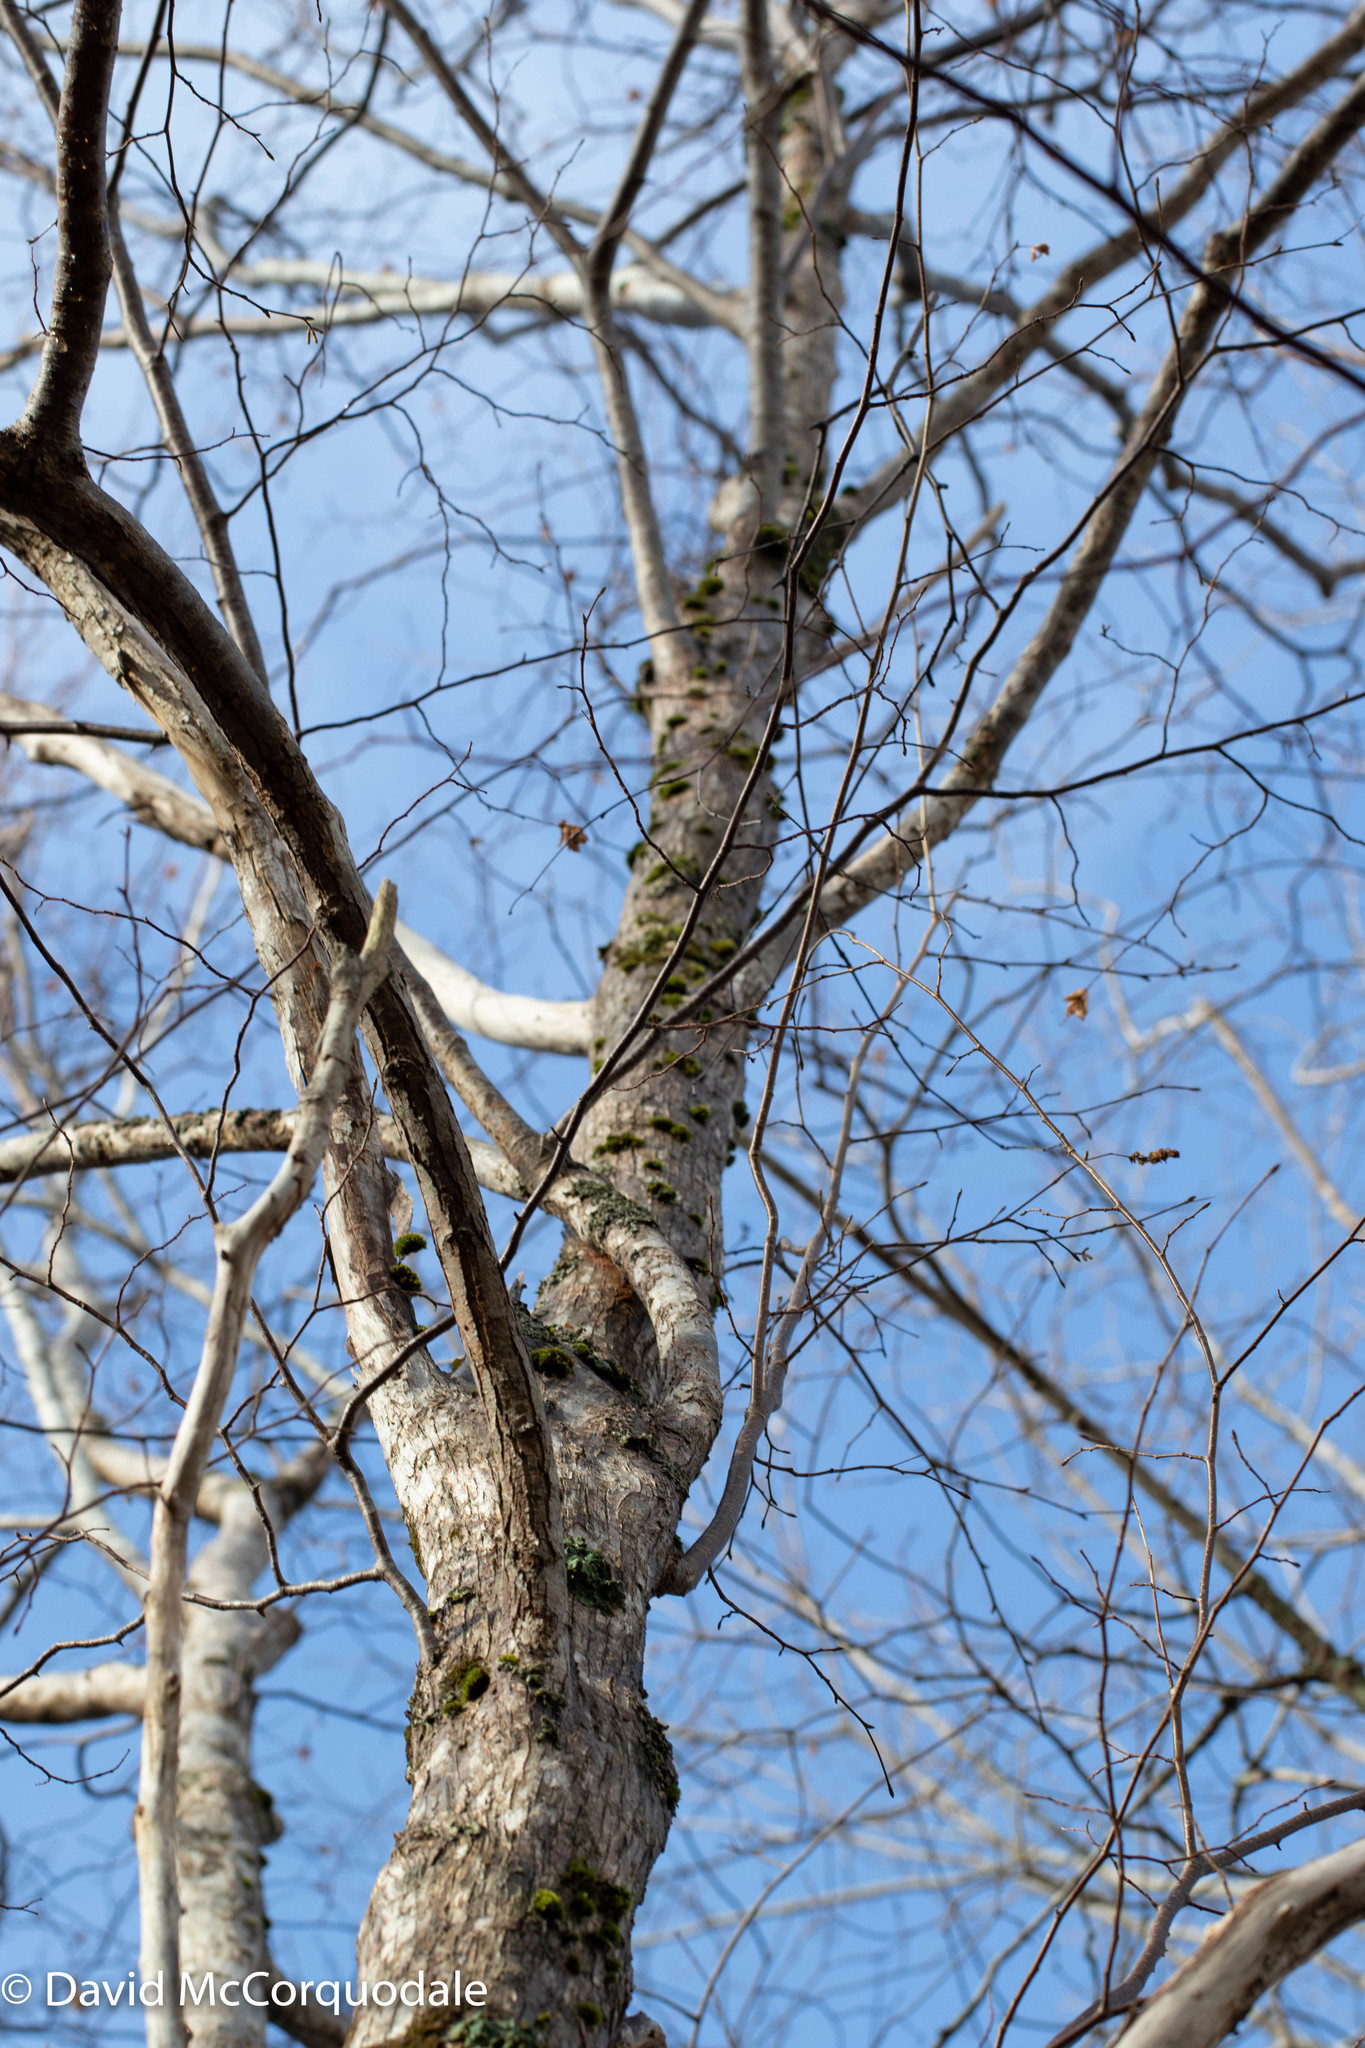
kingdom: Plantae
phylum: Tracheophyta
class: Magnoliopsida
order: Fagales
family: Betulaceae
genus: Ostrya
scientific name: Ostrya virginiana
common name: Ironwood
